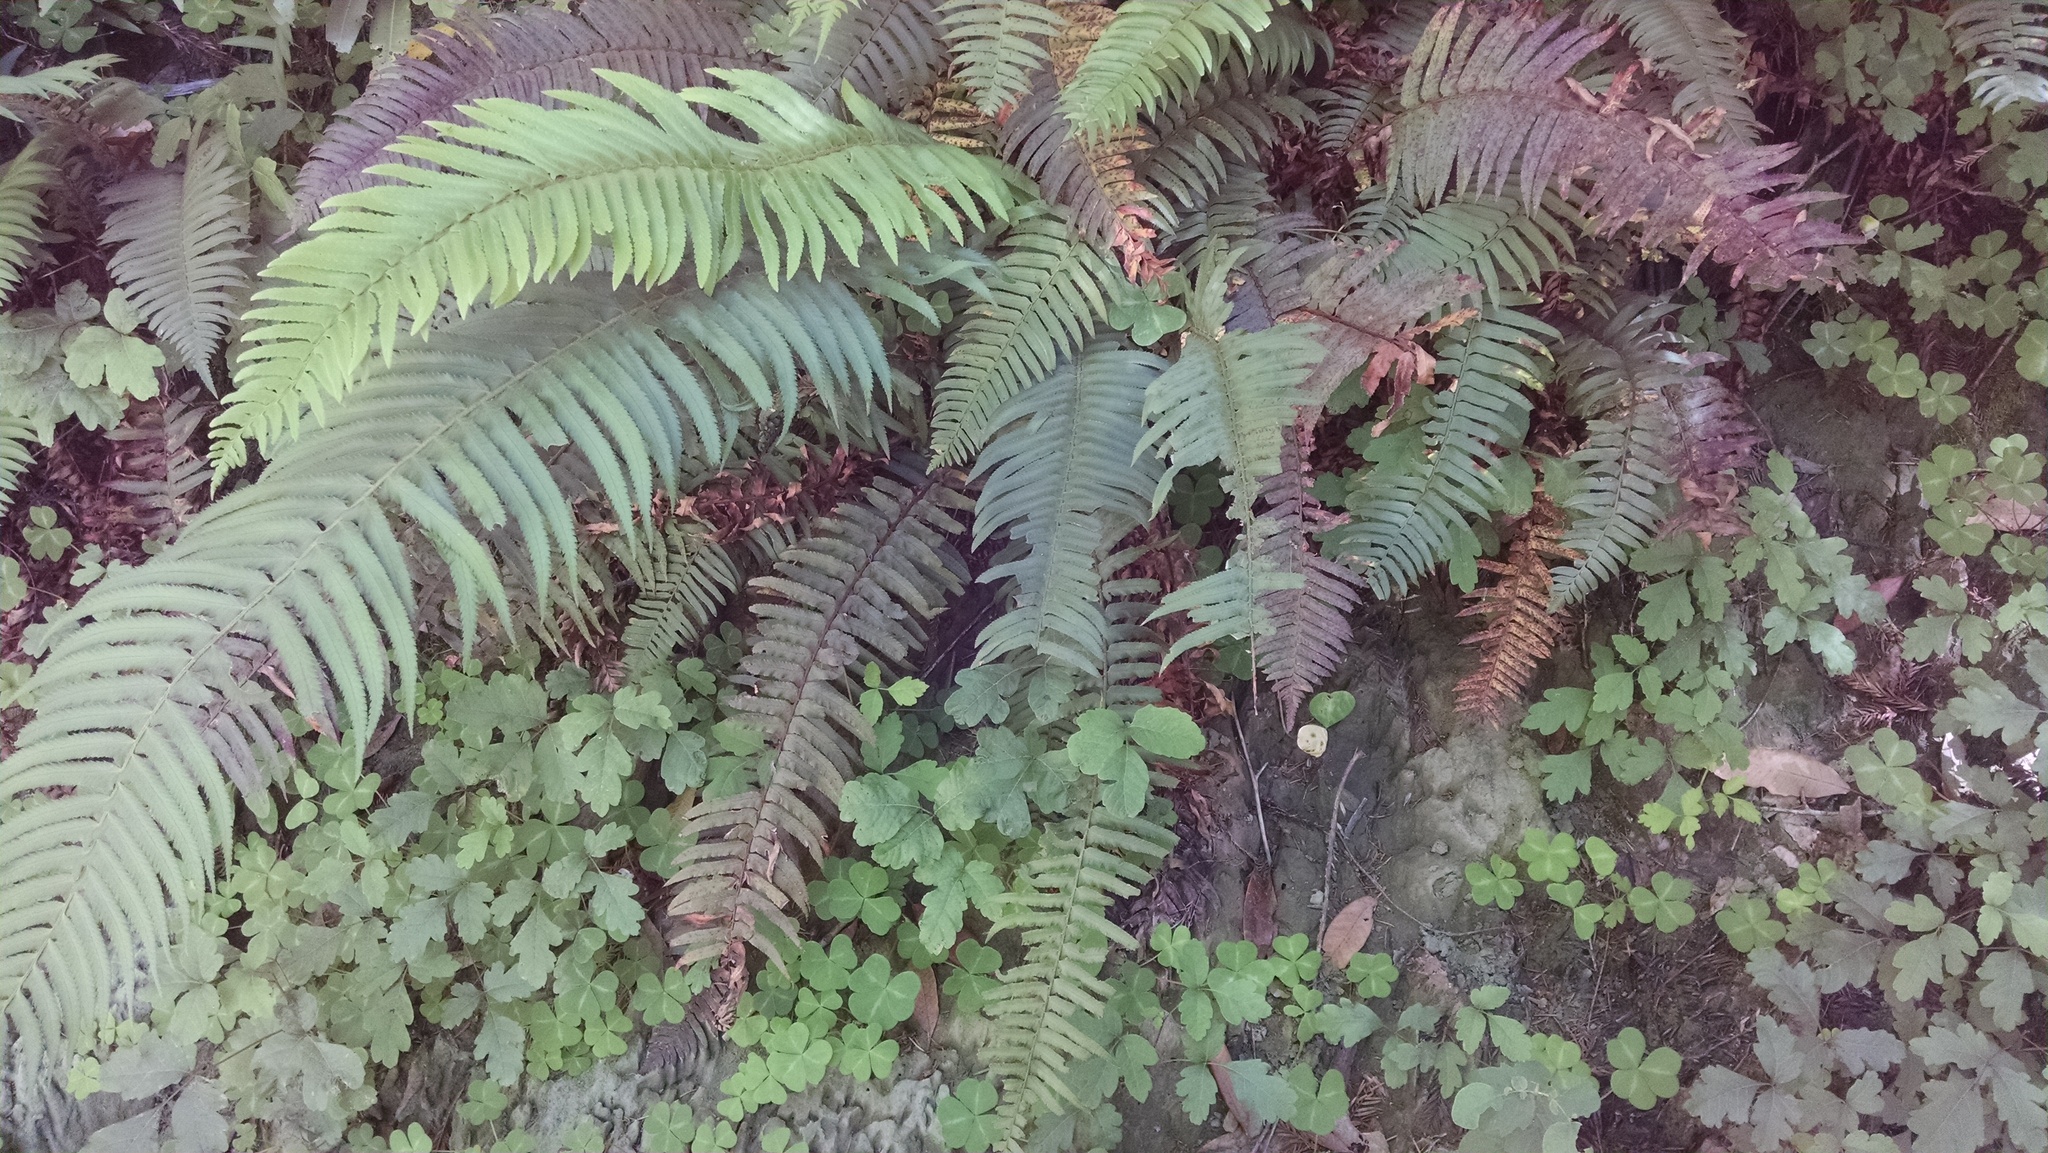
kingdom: Plantae
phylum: Tracheophyta
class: Polypodiopsida
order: Polypodiales
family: Dryopteridaceae
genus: Polystichum
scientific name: Polystichum munitum
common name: Western sword-fern
